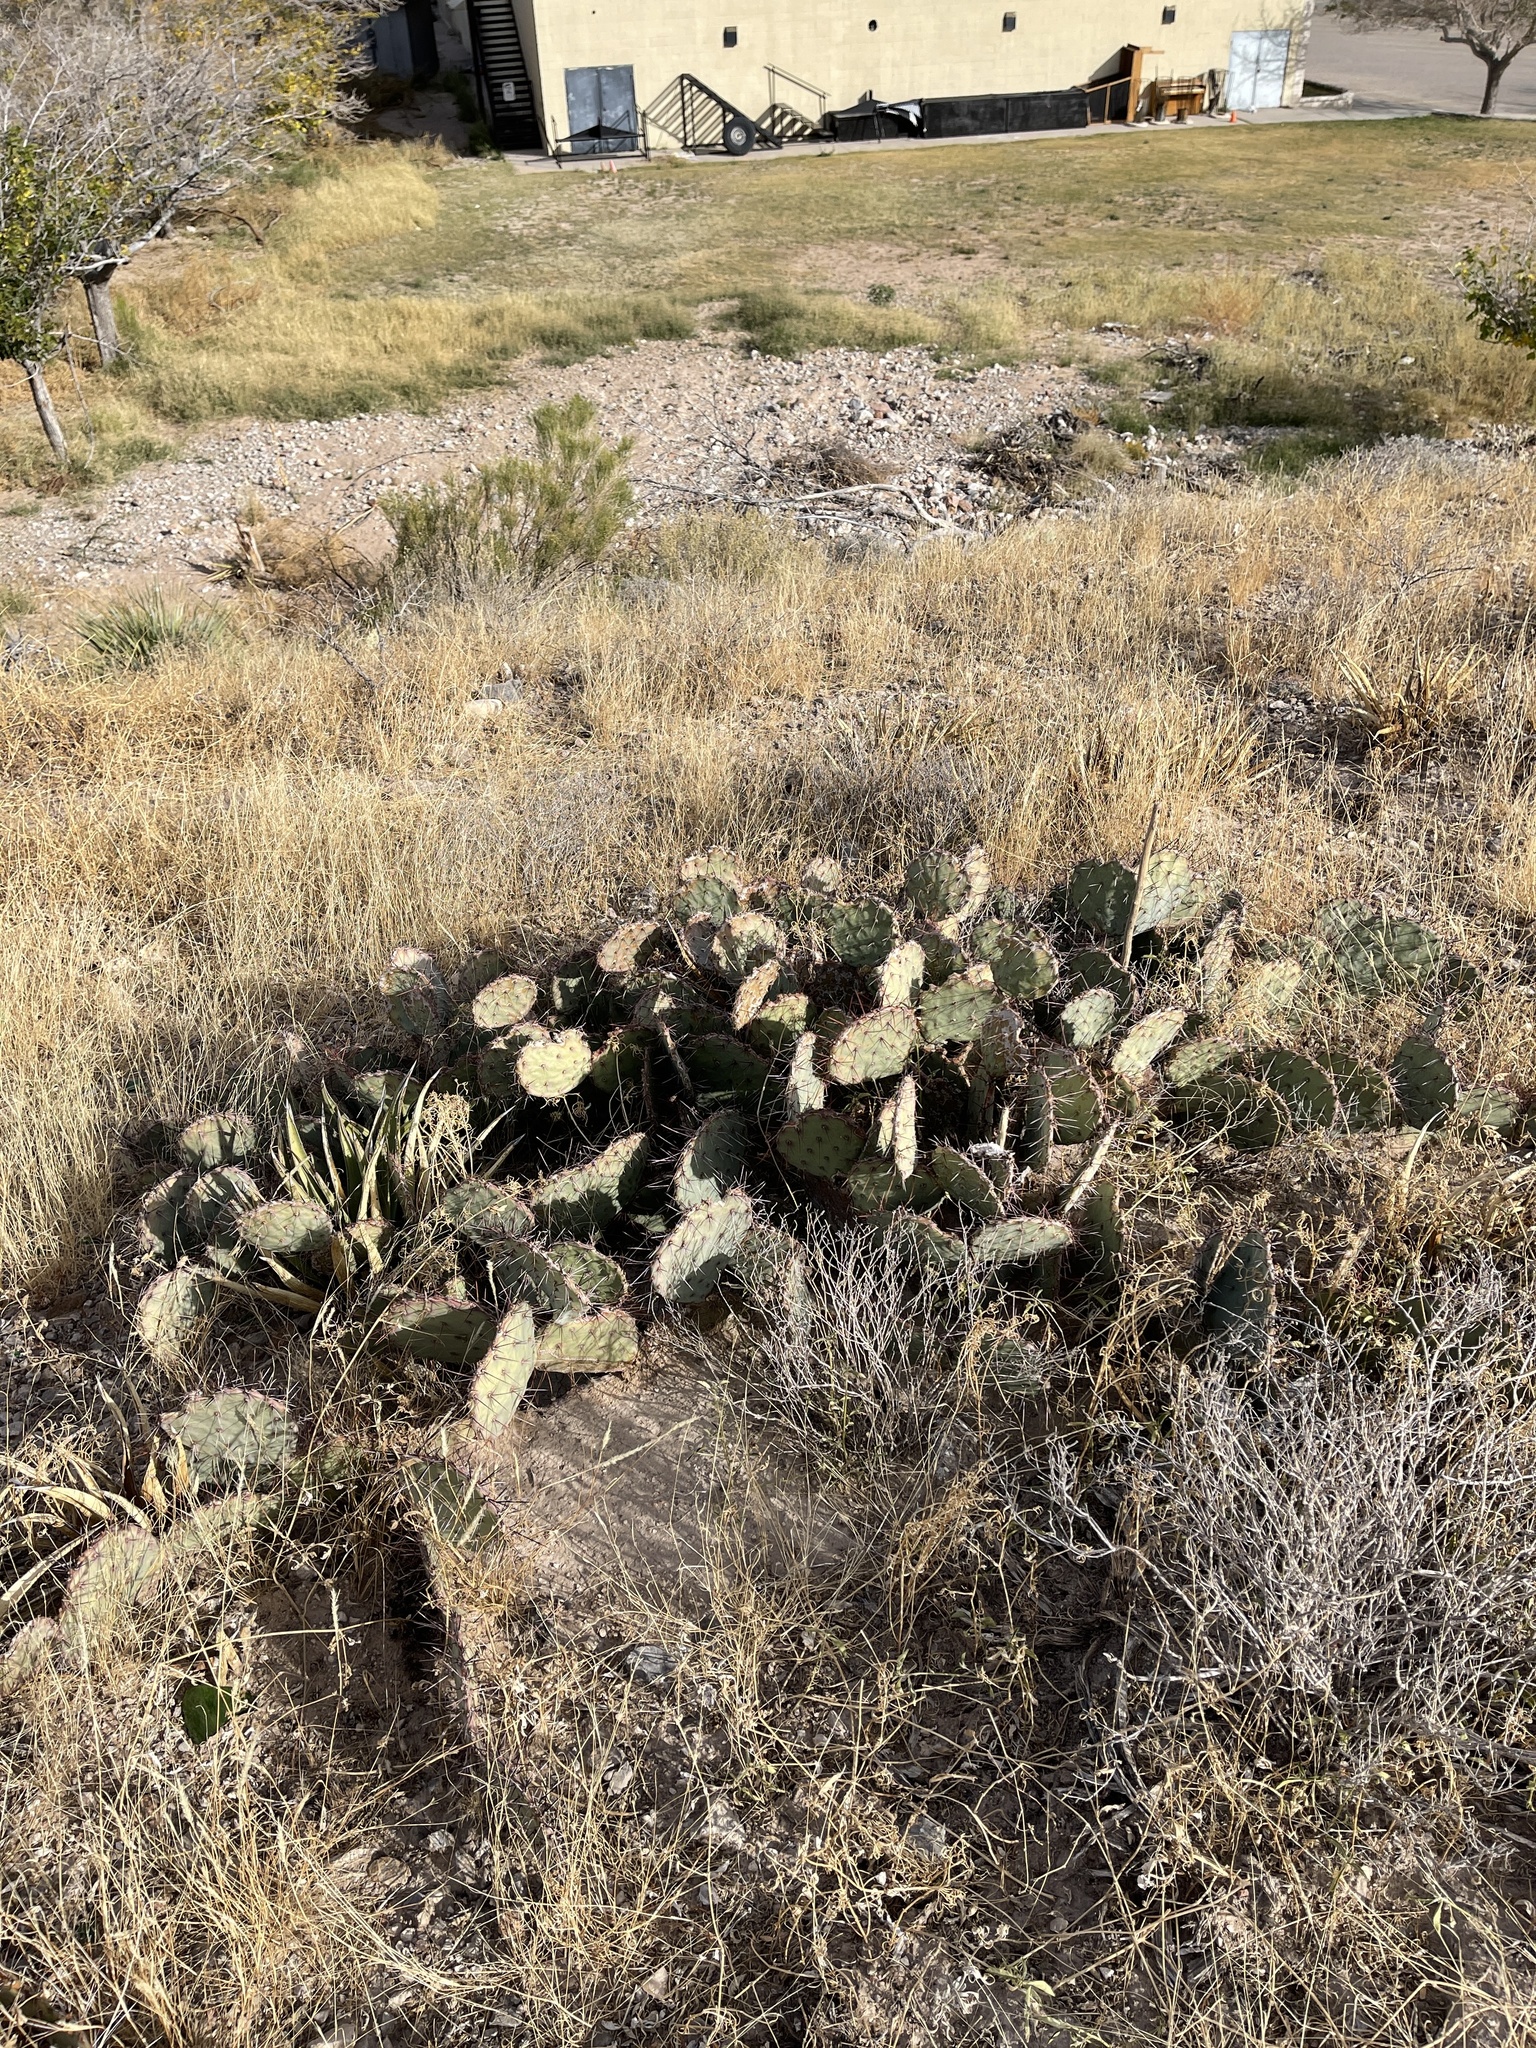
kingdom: Plantae
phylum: Tracheophyta
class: Magnoliopsida
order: Caryophyllales
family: Cactaceae
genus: Opuntia
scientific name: Opuntia phaeacantha
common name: New mexico prickly-pear
